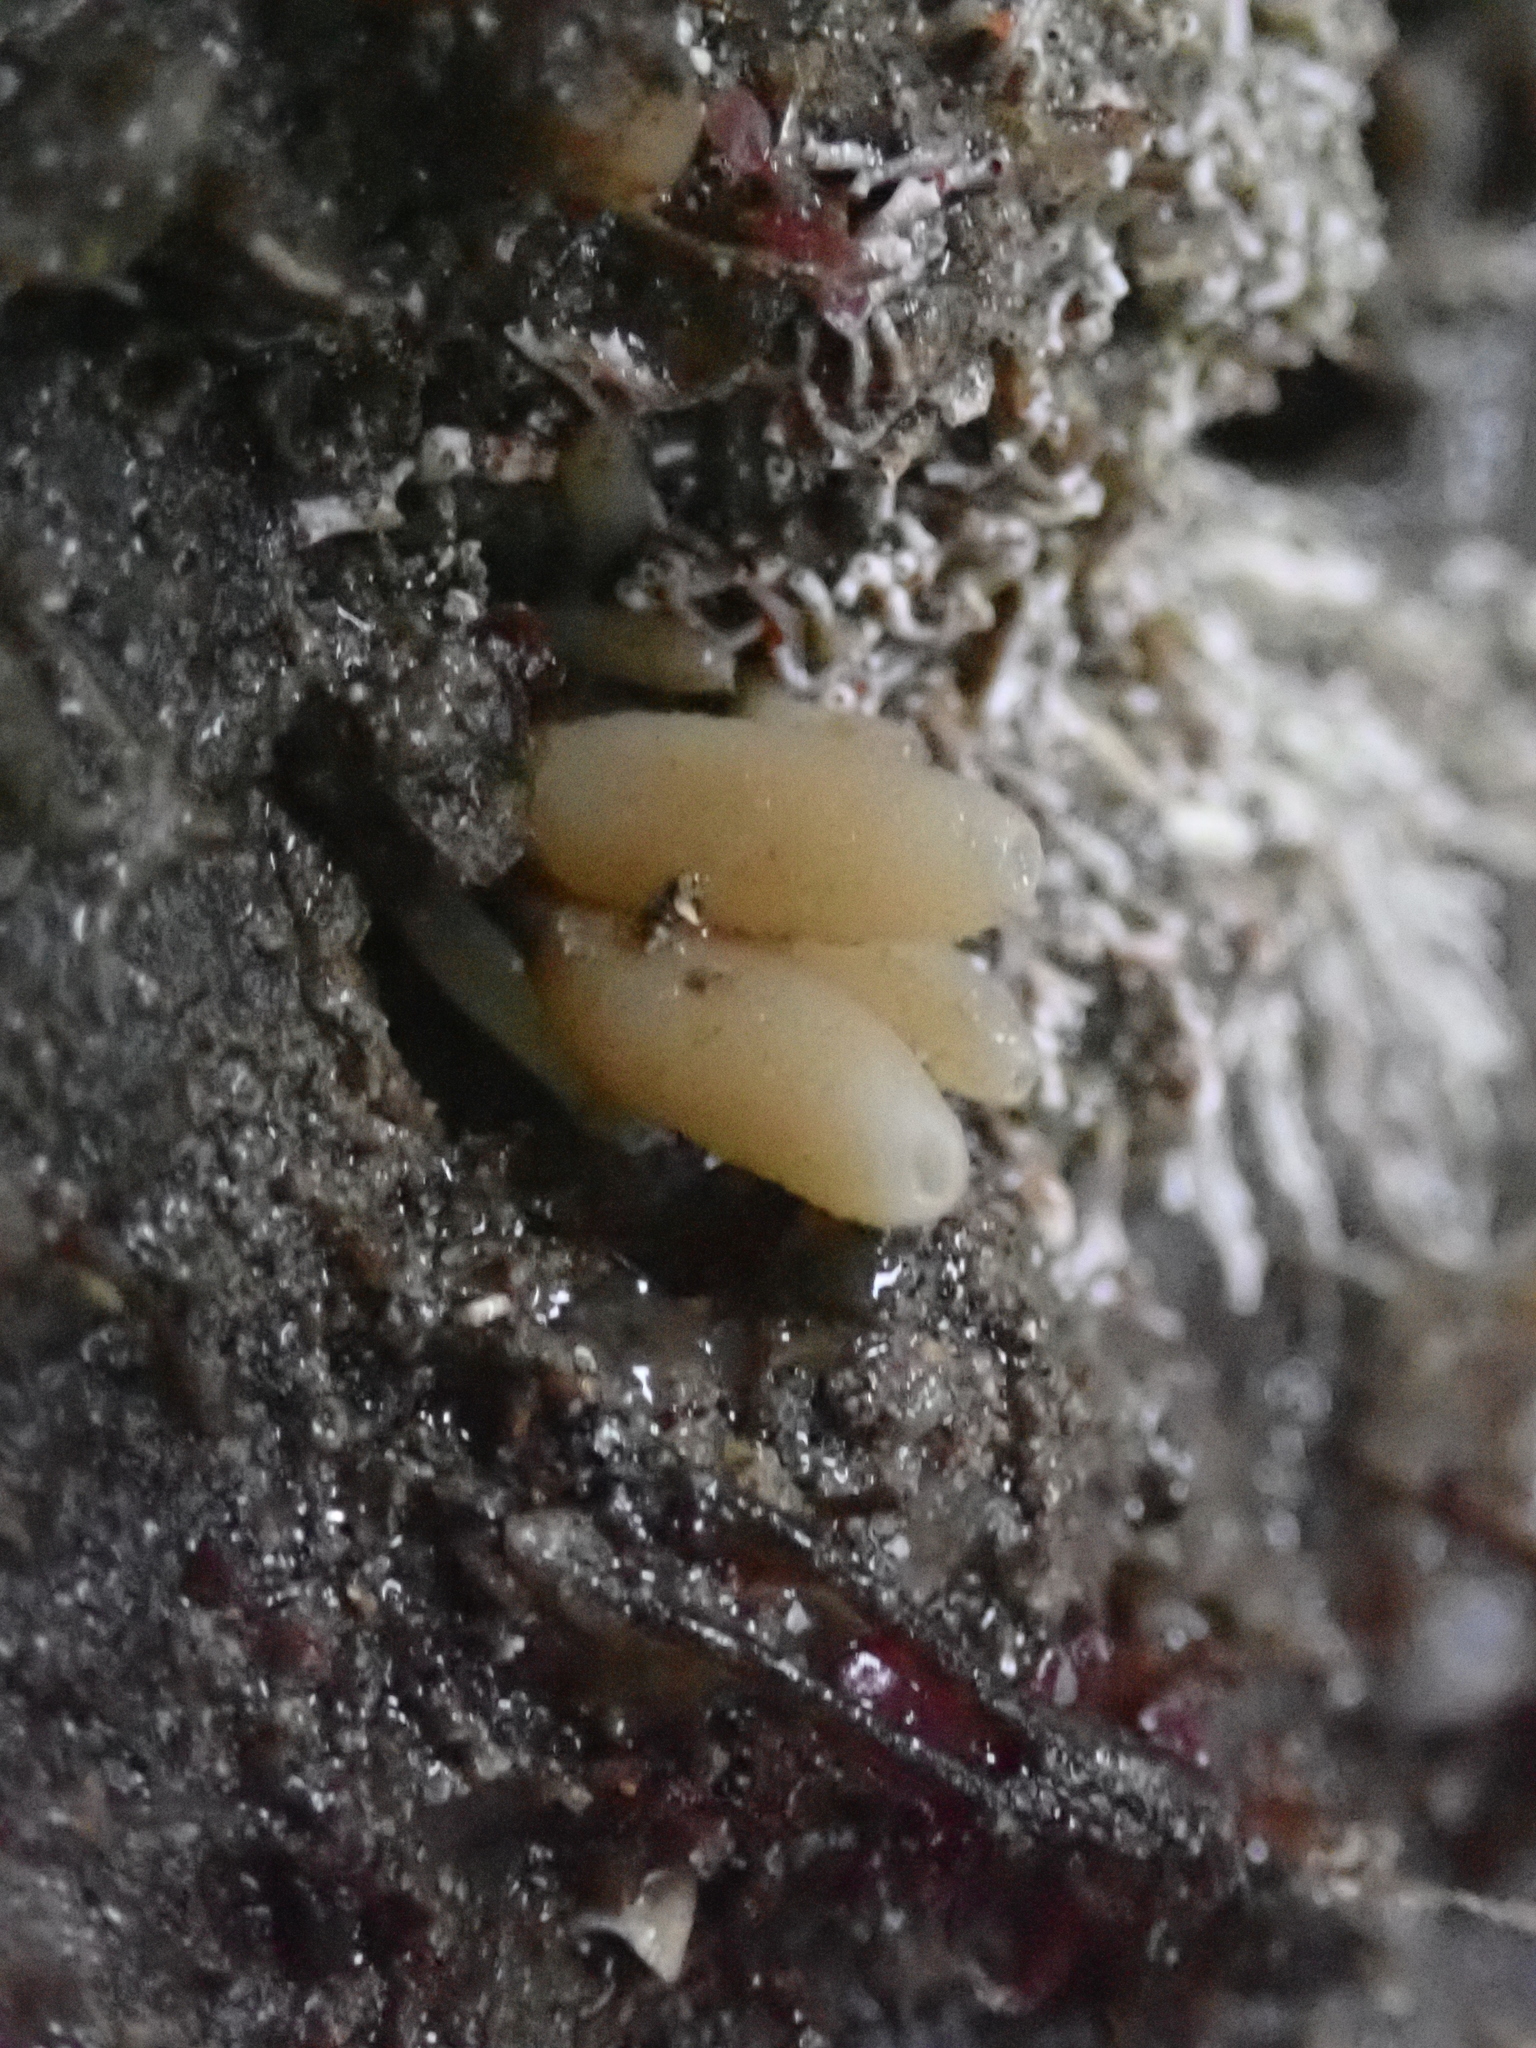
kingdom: Animalia
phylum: Porifera
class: Calcarea
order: Leucosolenida
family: Amphoriscidae
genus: Leucilla
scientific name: Leucilla nuttingi
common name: Nutting's sponge
